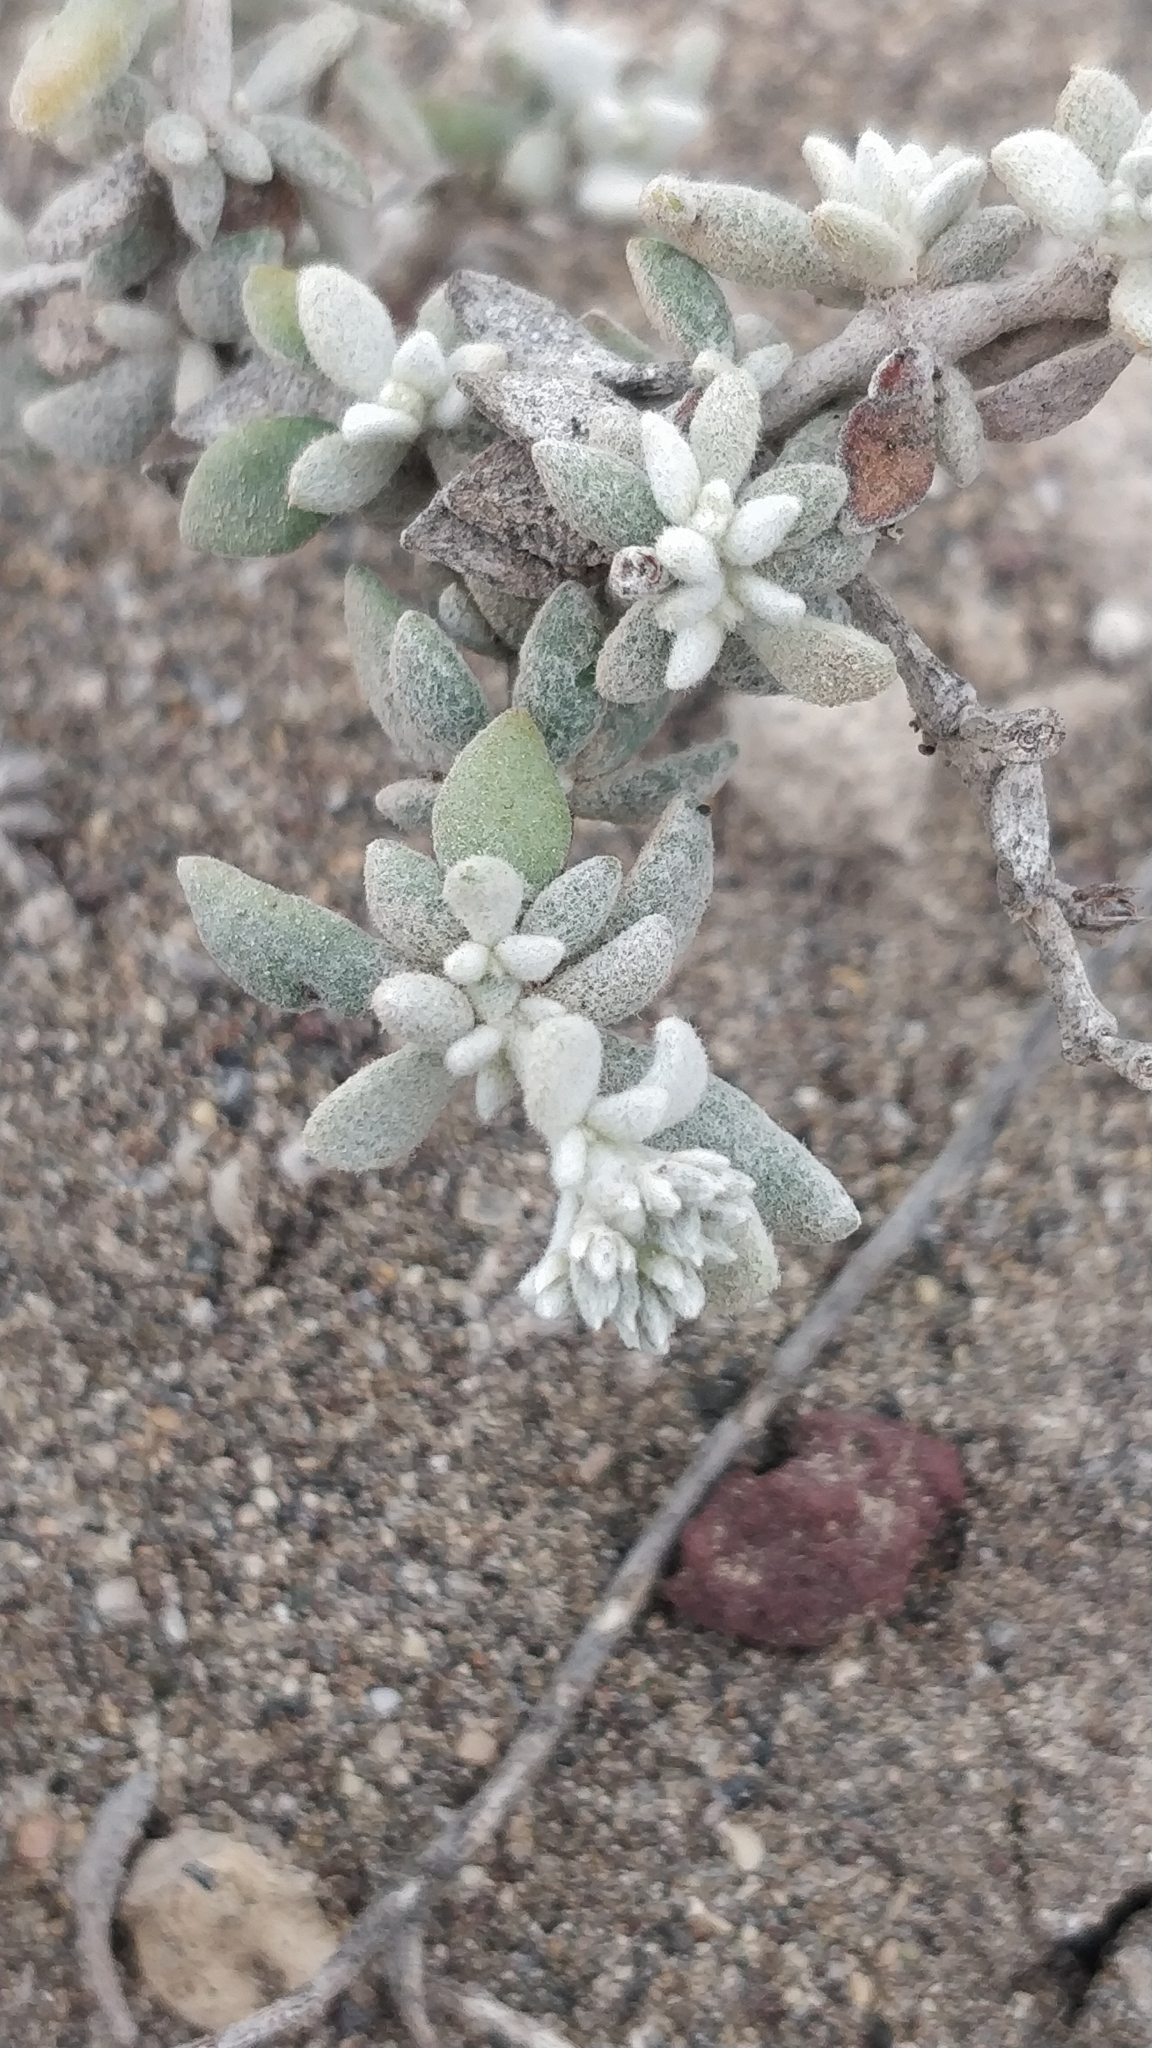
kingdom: Plantae
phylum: Tracheophyta
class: Magnoliopsida
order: Caryophyllales
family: Caryophyllaceae
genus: Polycarpaea
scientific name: Polycarpaea nivea
